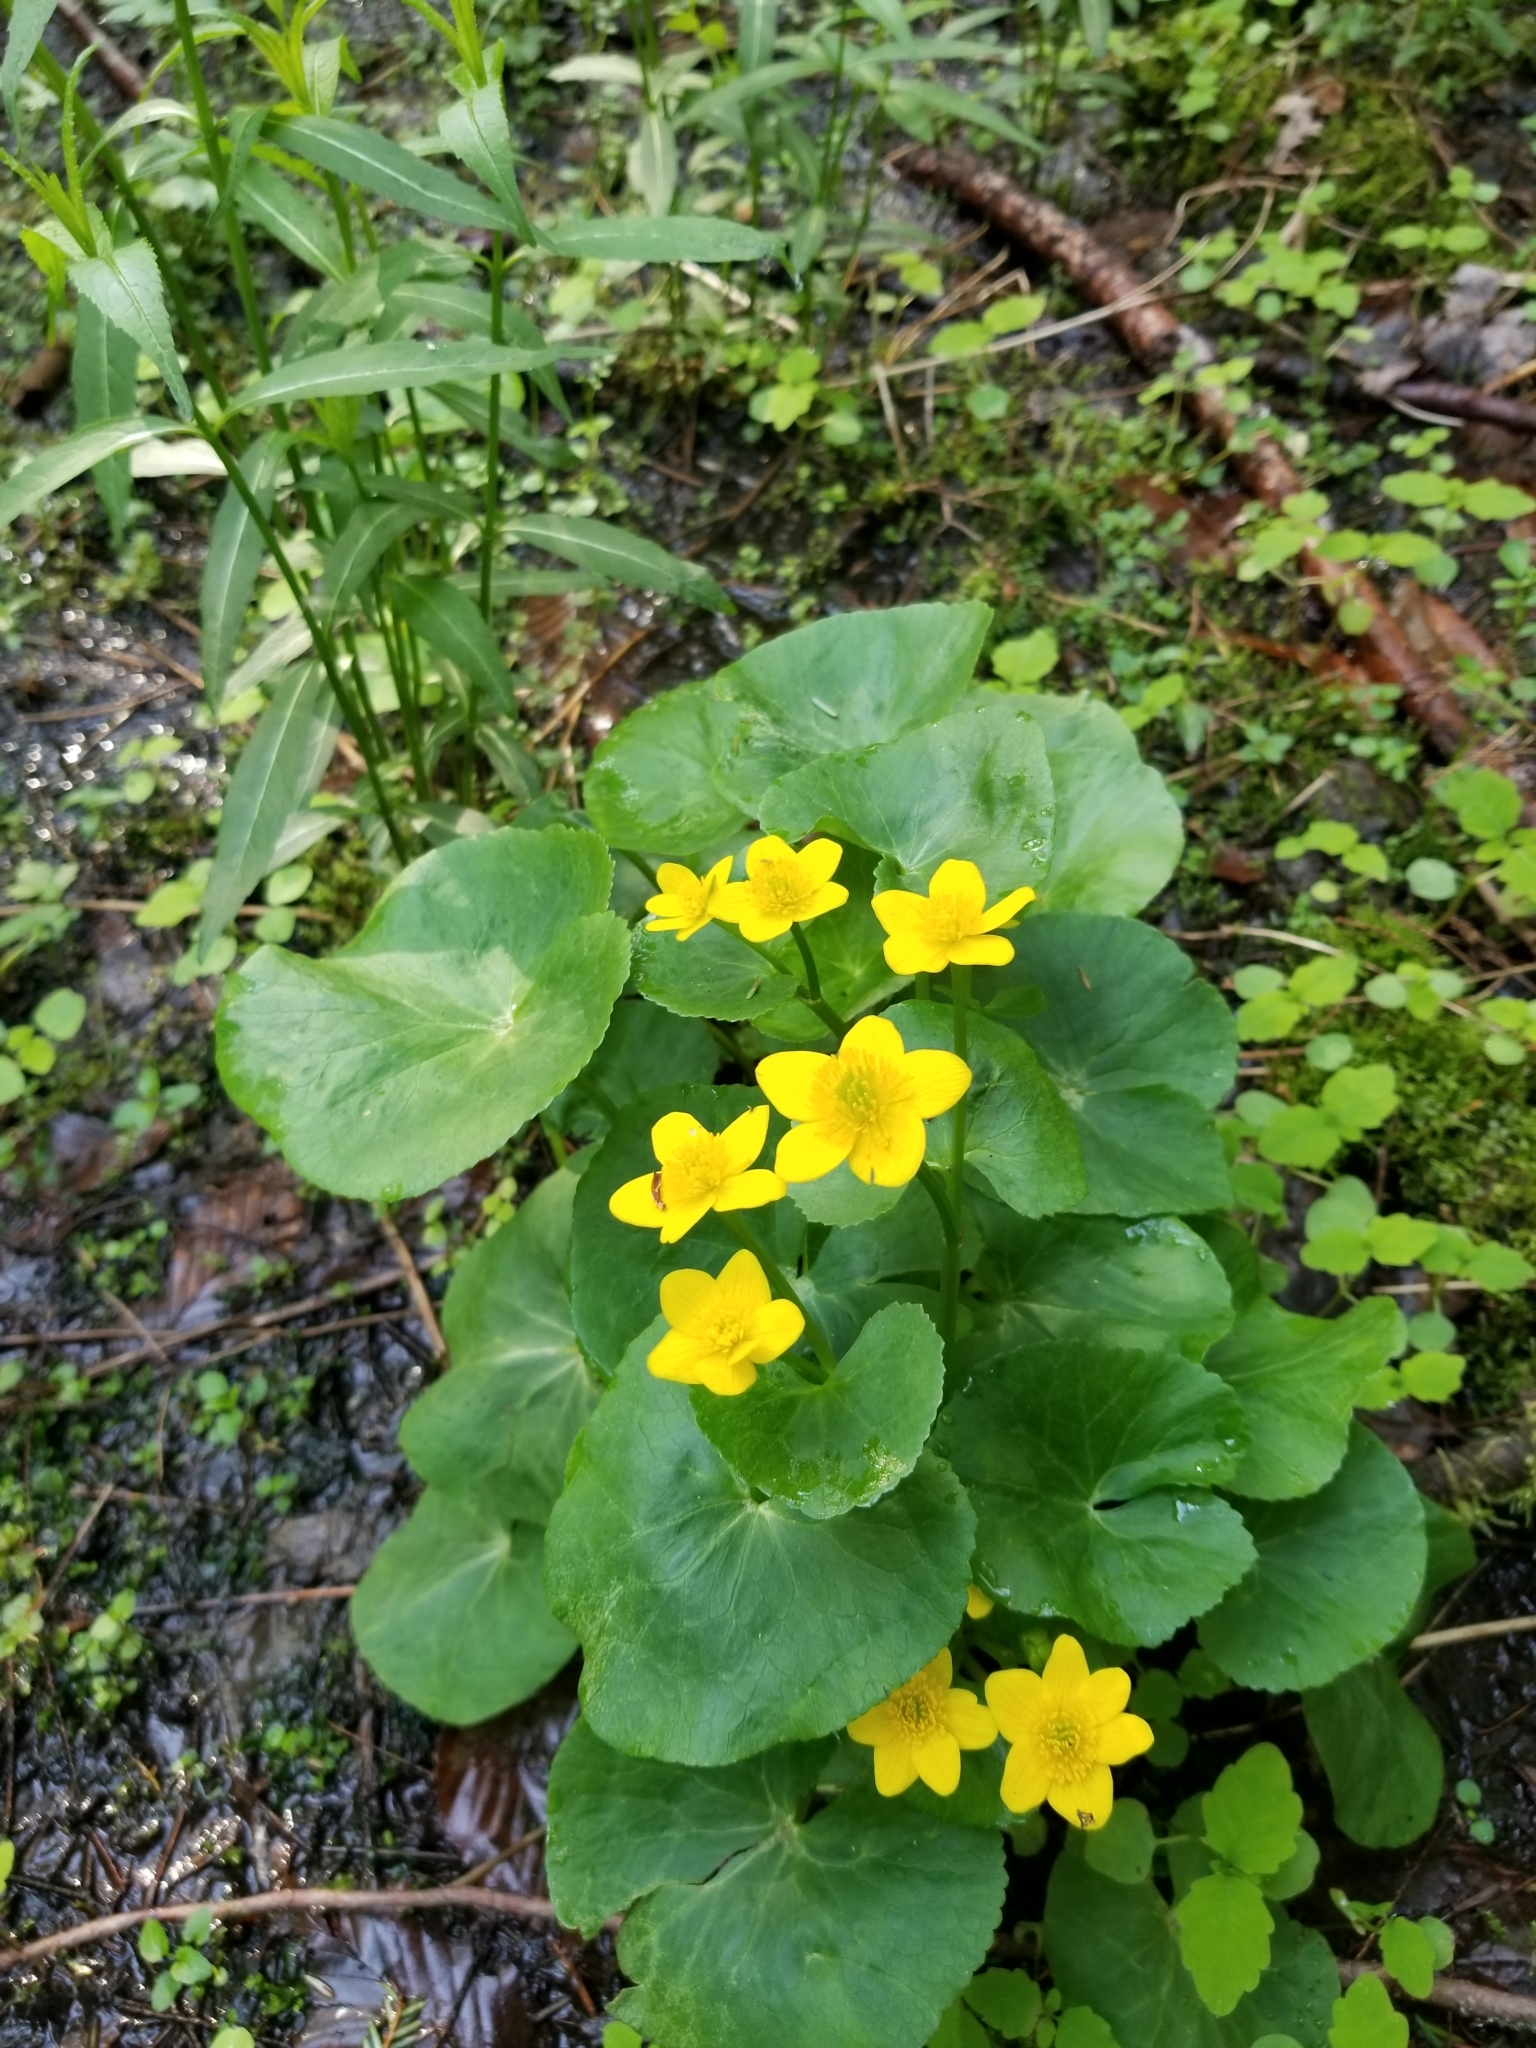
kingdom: Plantae
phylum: Tracheophyta
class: Magnoliopsida
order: Ranunculales
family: Ranunculaceae
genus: Caltha
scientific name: Caltha palustris
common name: Marsh marigold
